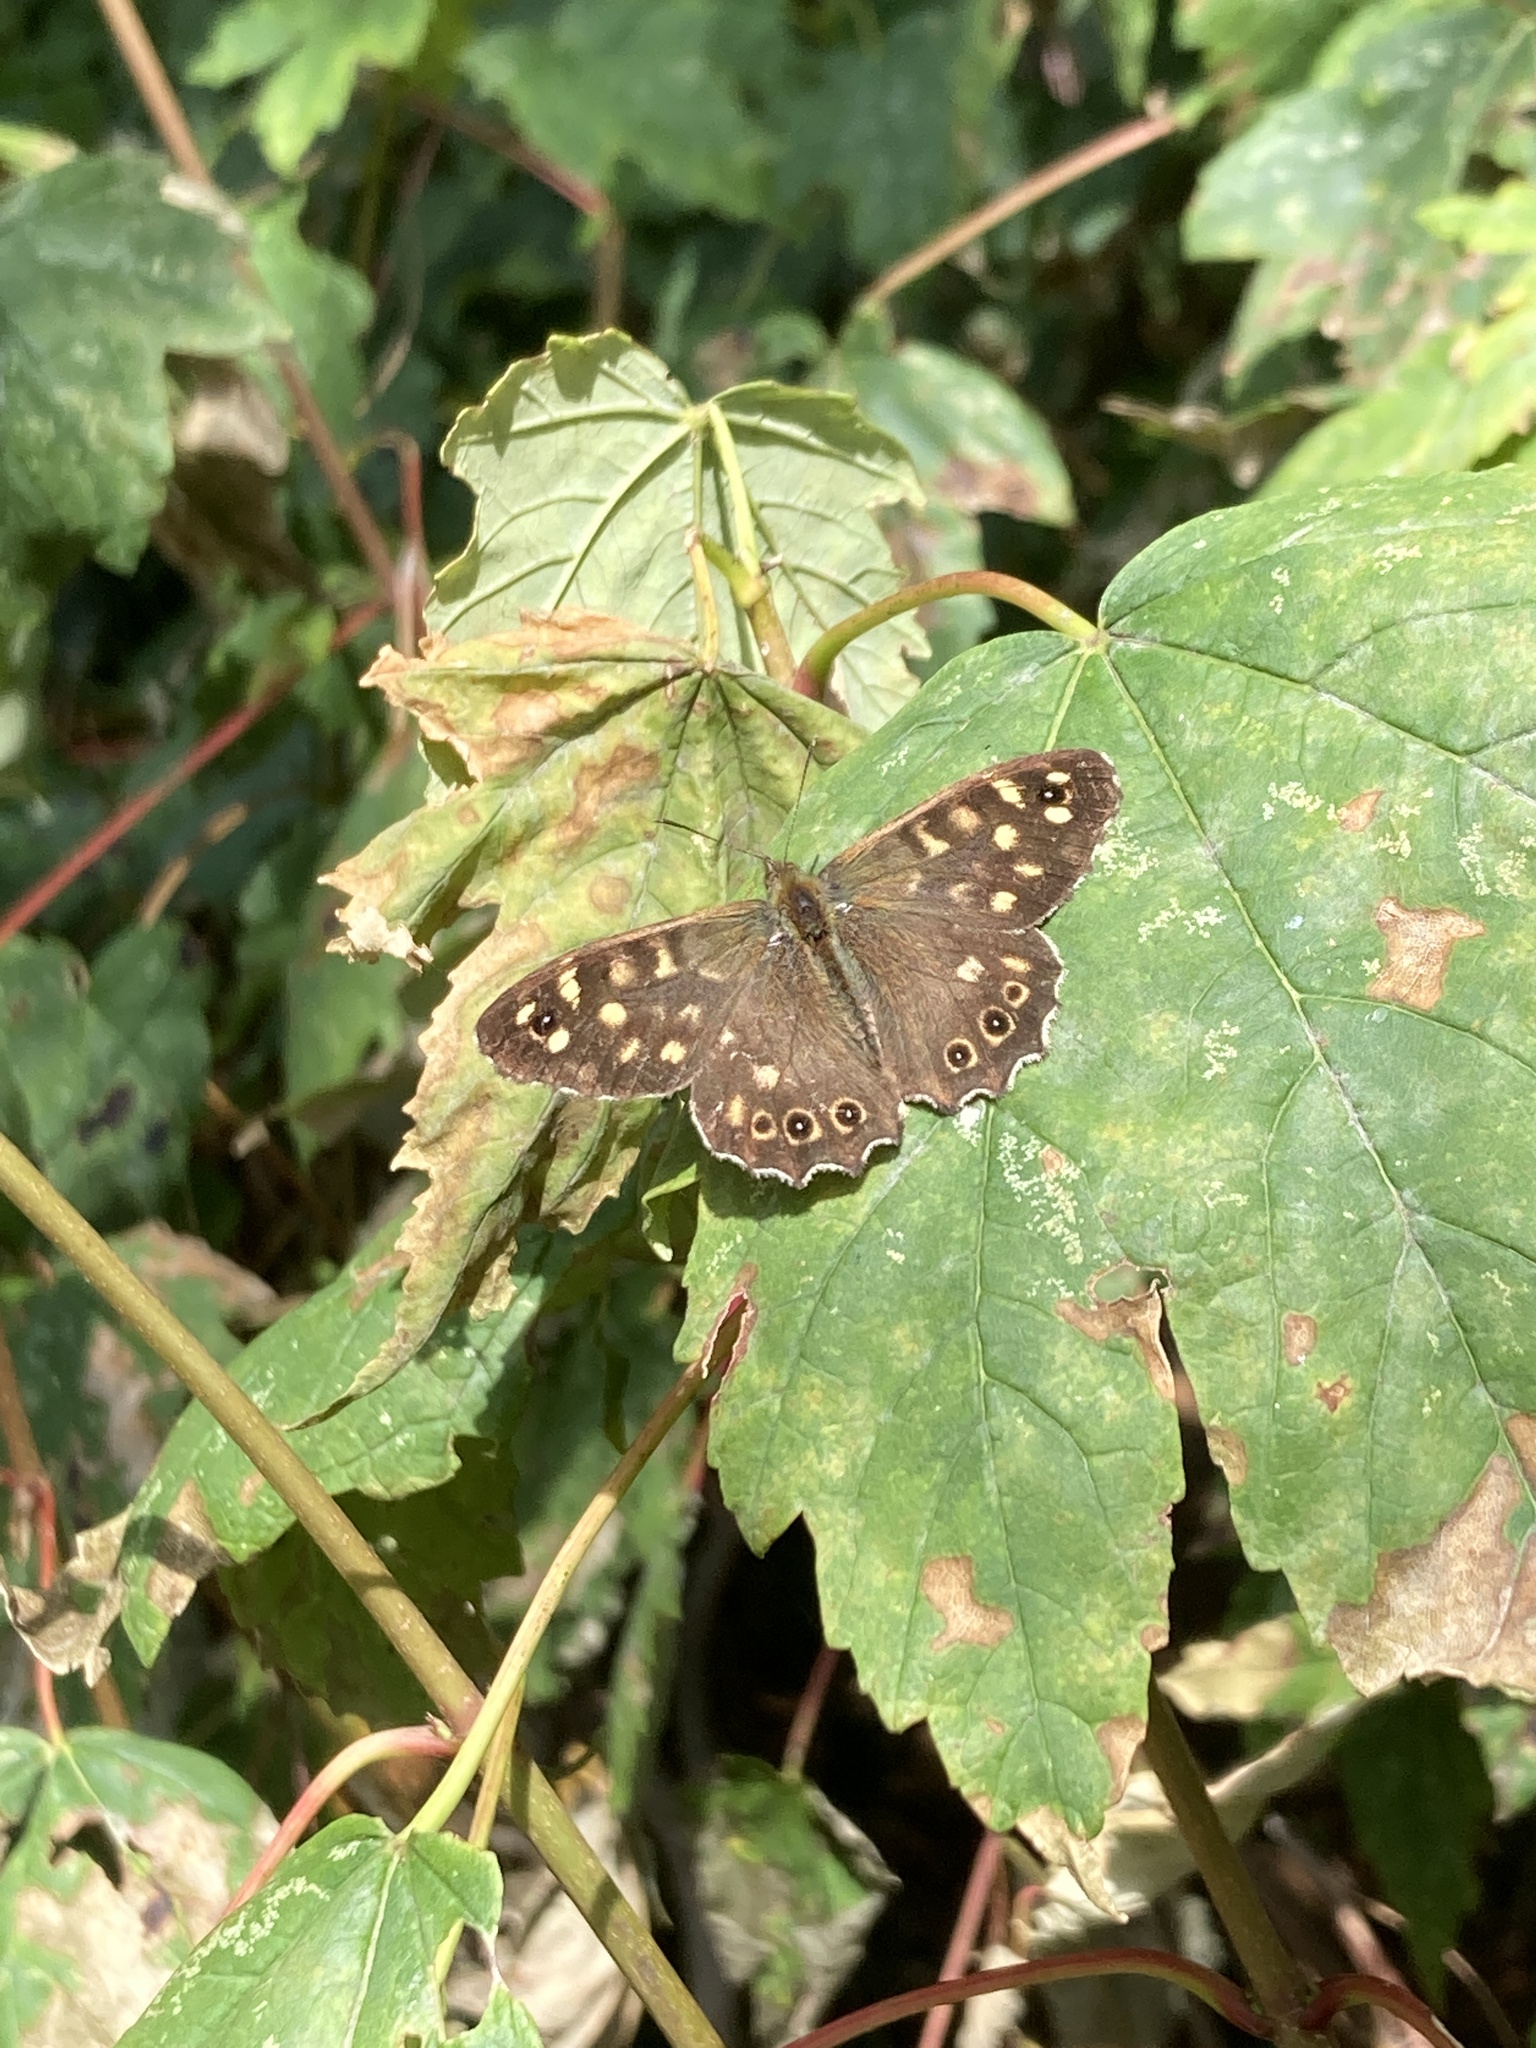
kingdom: Animalia
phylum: Arthropoda
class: Insecta
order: Lepidoptera
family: Nymphalidae
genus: Pararge
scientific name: Pararge aegeria
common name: Speckled wood
